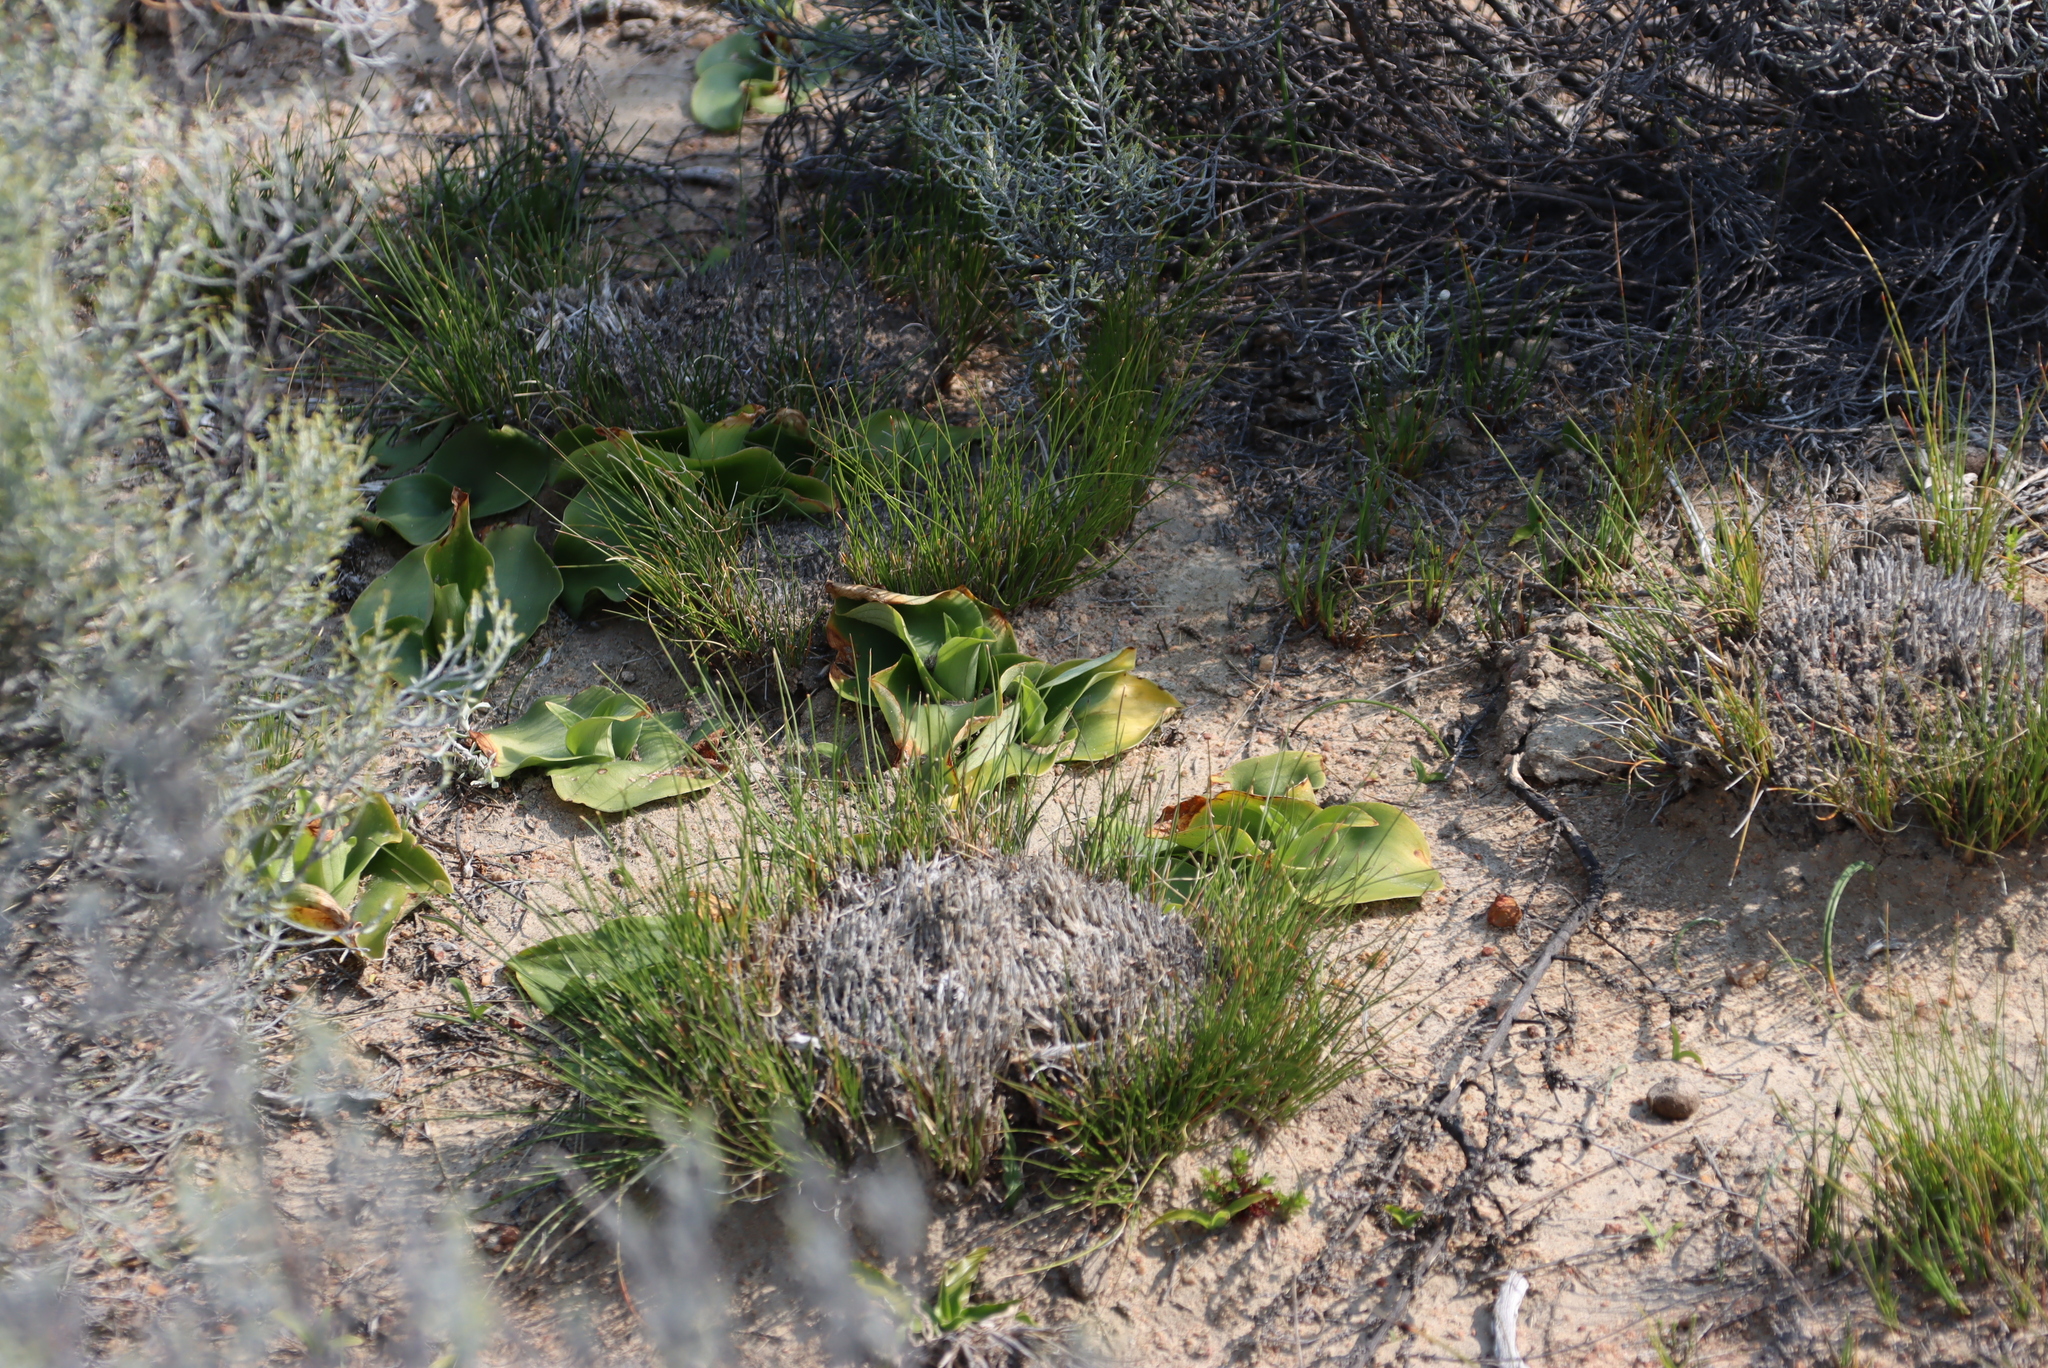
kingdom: Plantae
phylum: Tracheophyta
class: Liliopsida
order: Asparagales
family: Orchidaceae
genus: Satyrium
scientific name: Satyrium erectum
